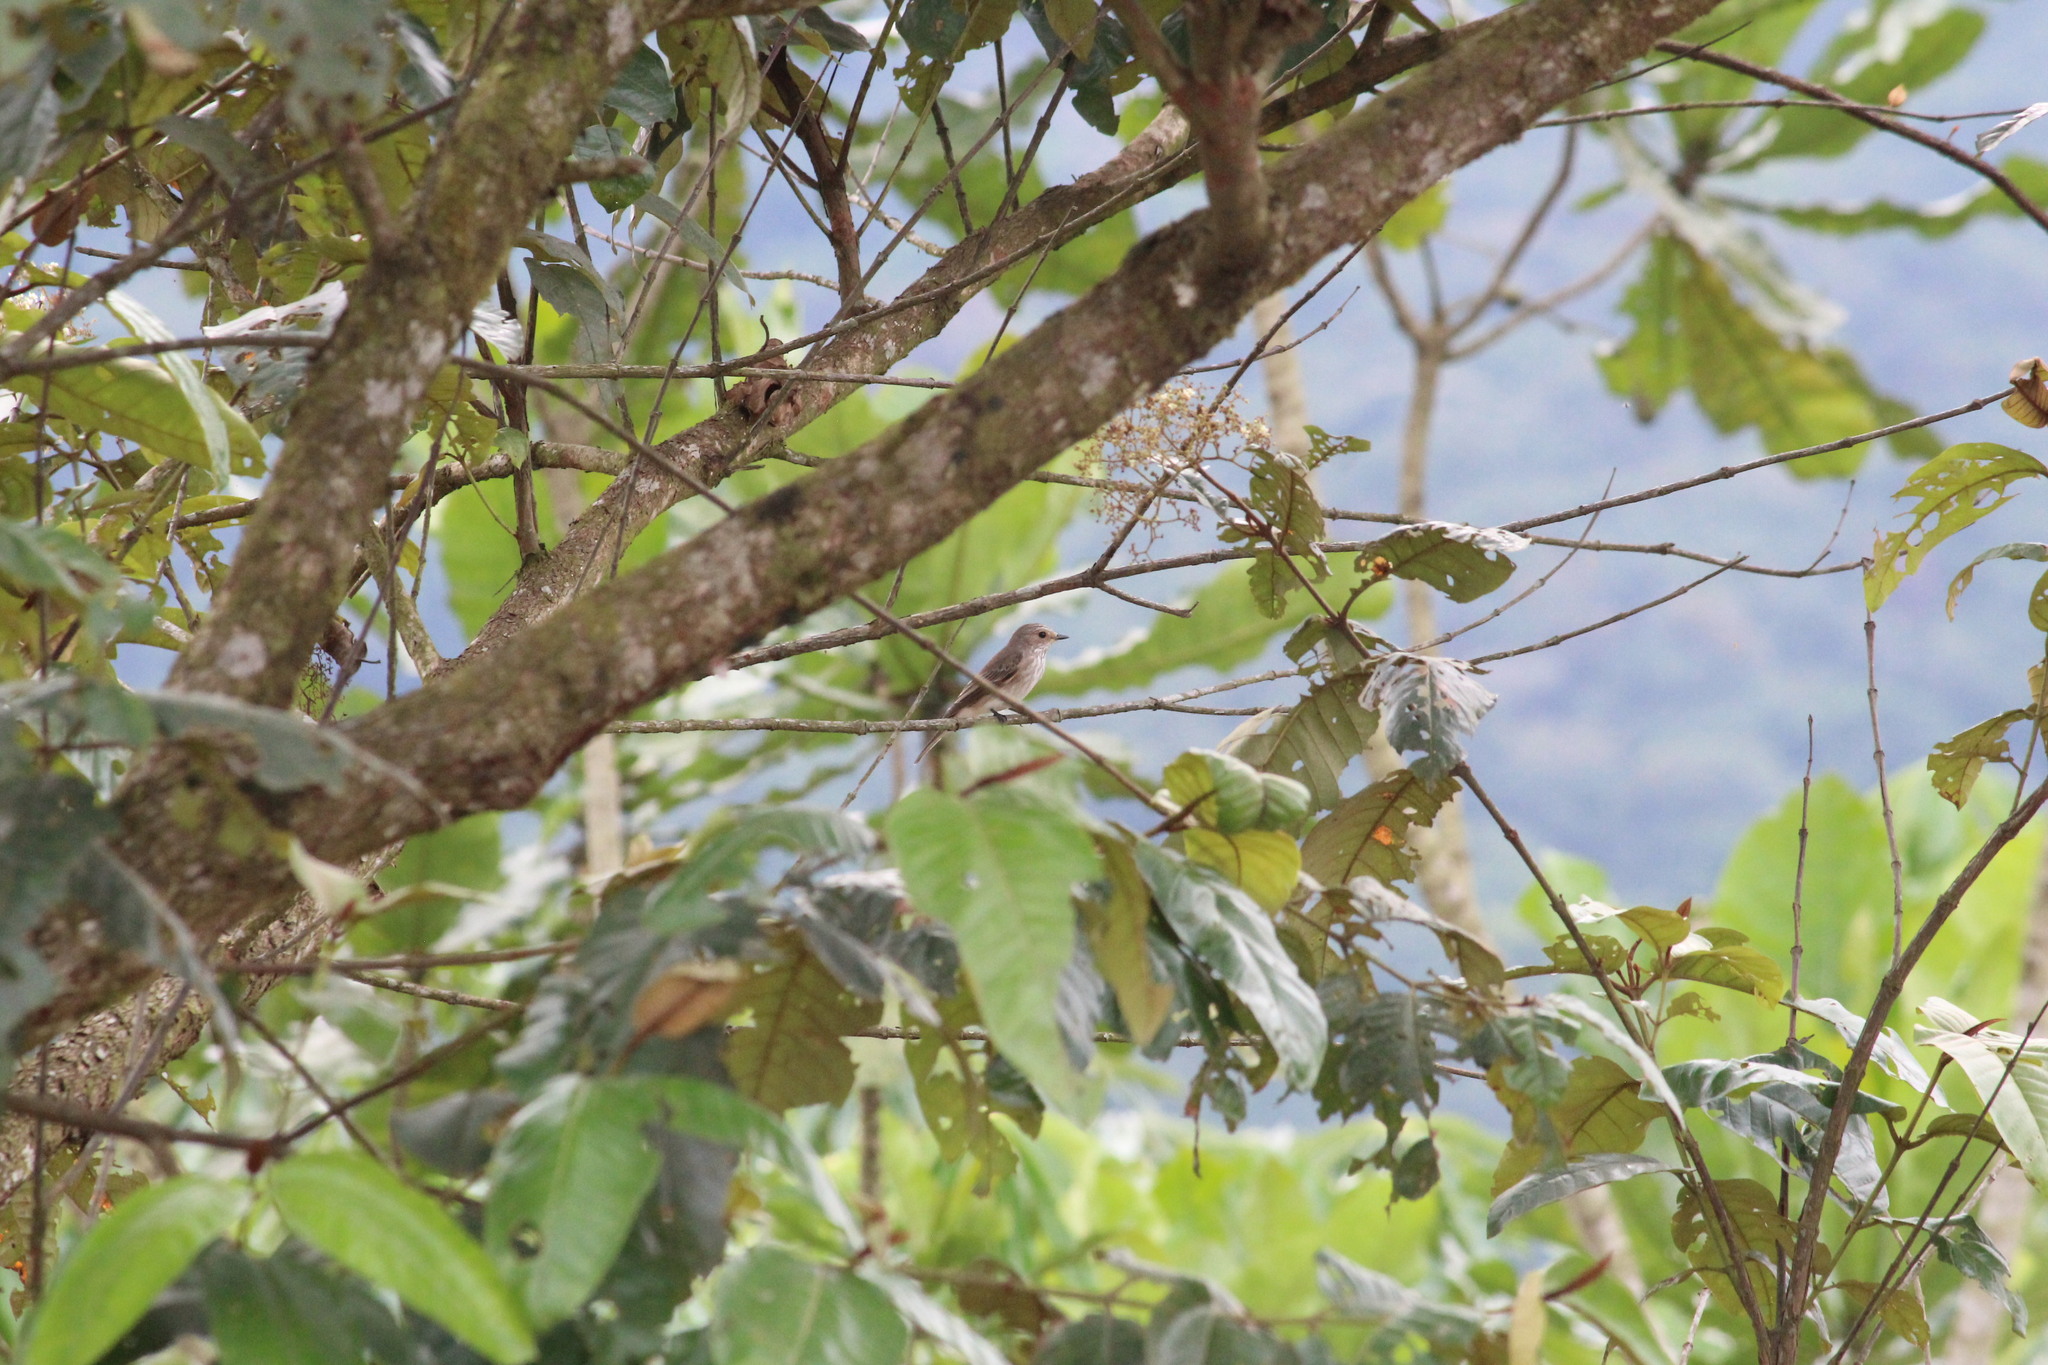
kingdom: Animalia
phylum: Chordata
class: Aves
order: Passeriformes
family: Muscicapidae
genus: Muscicapa
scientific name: Muscicapa striata
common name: Spotted flycatcher
